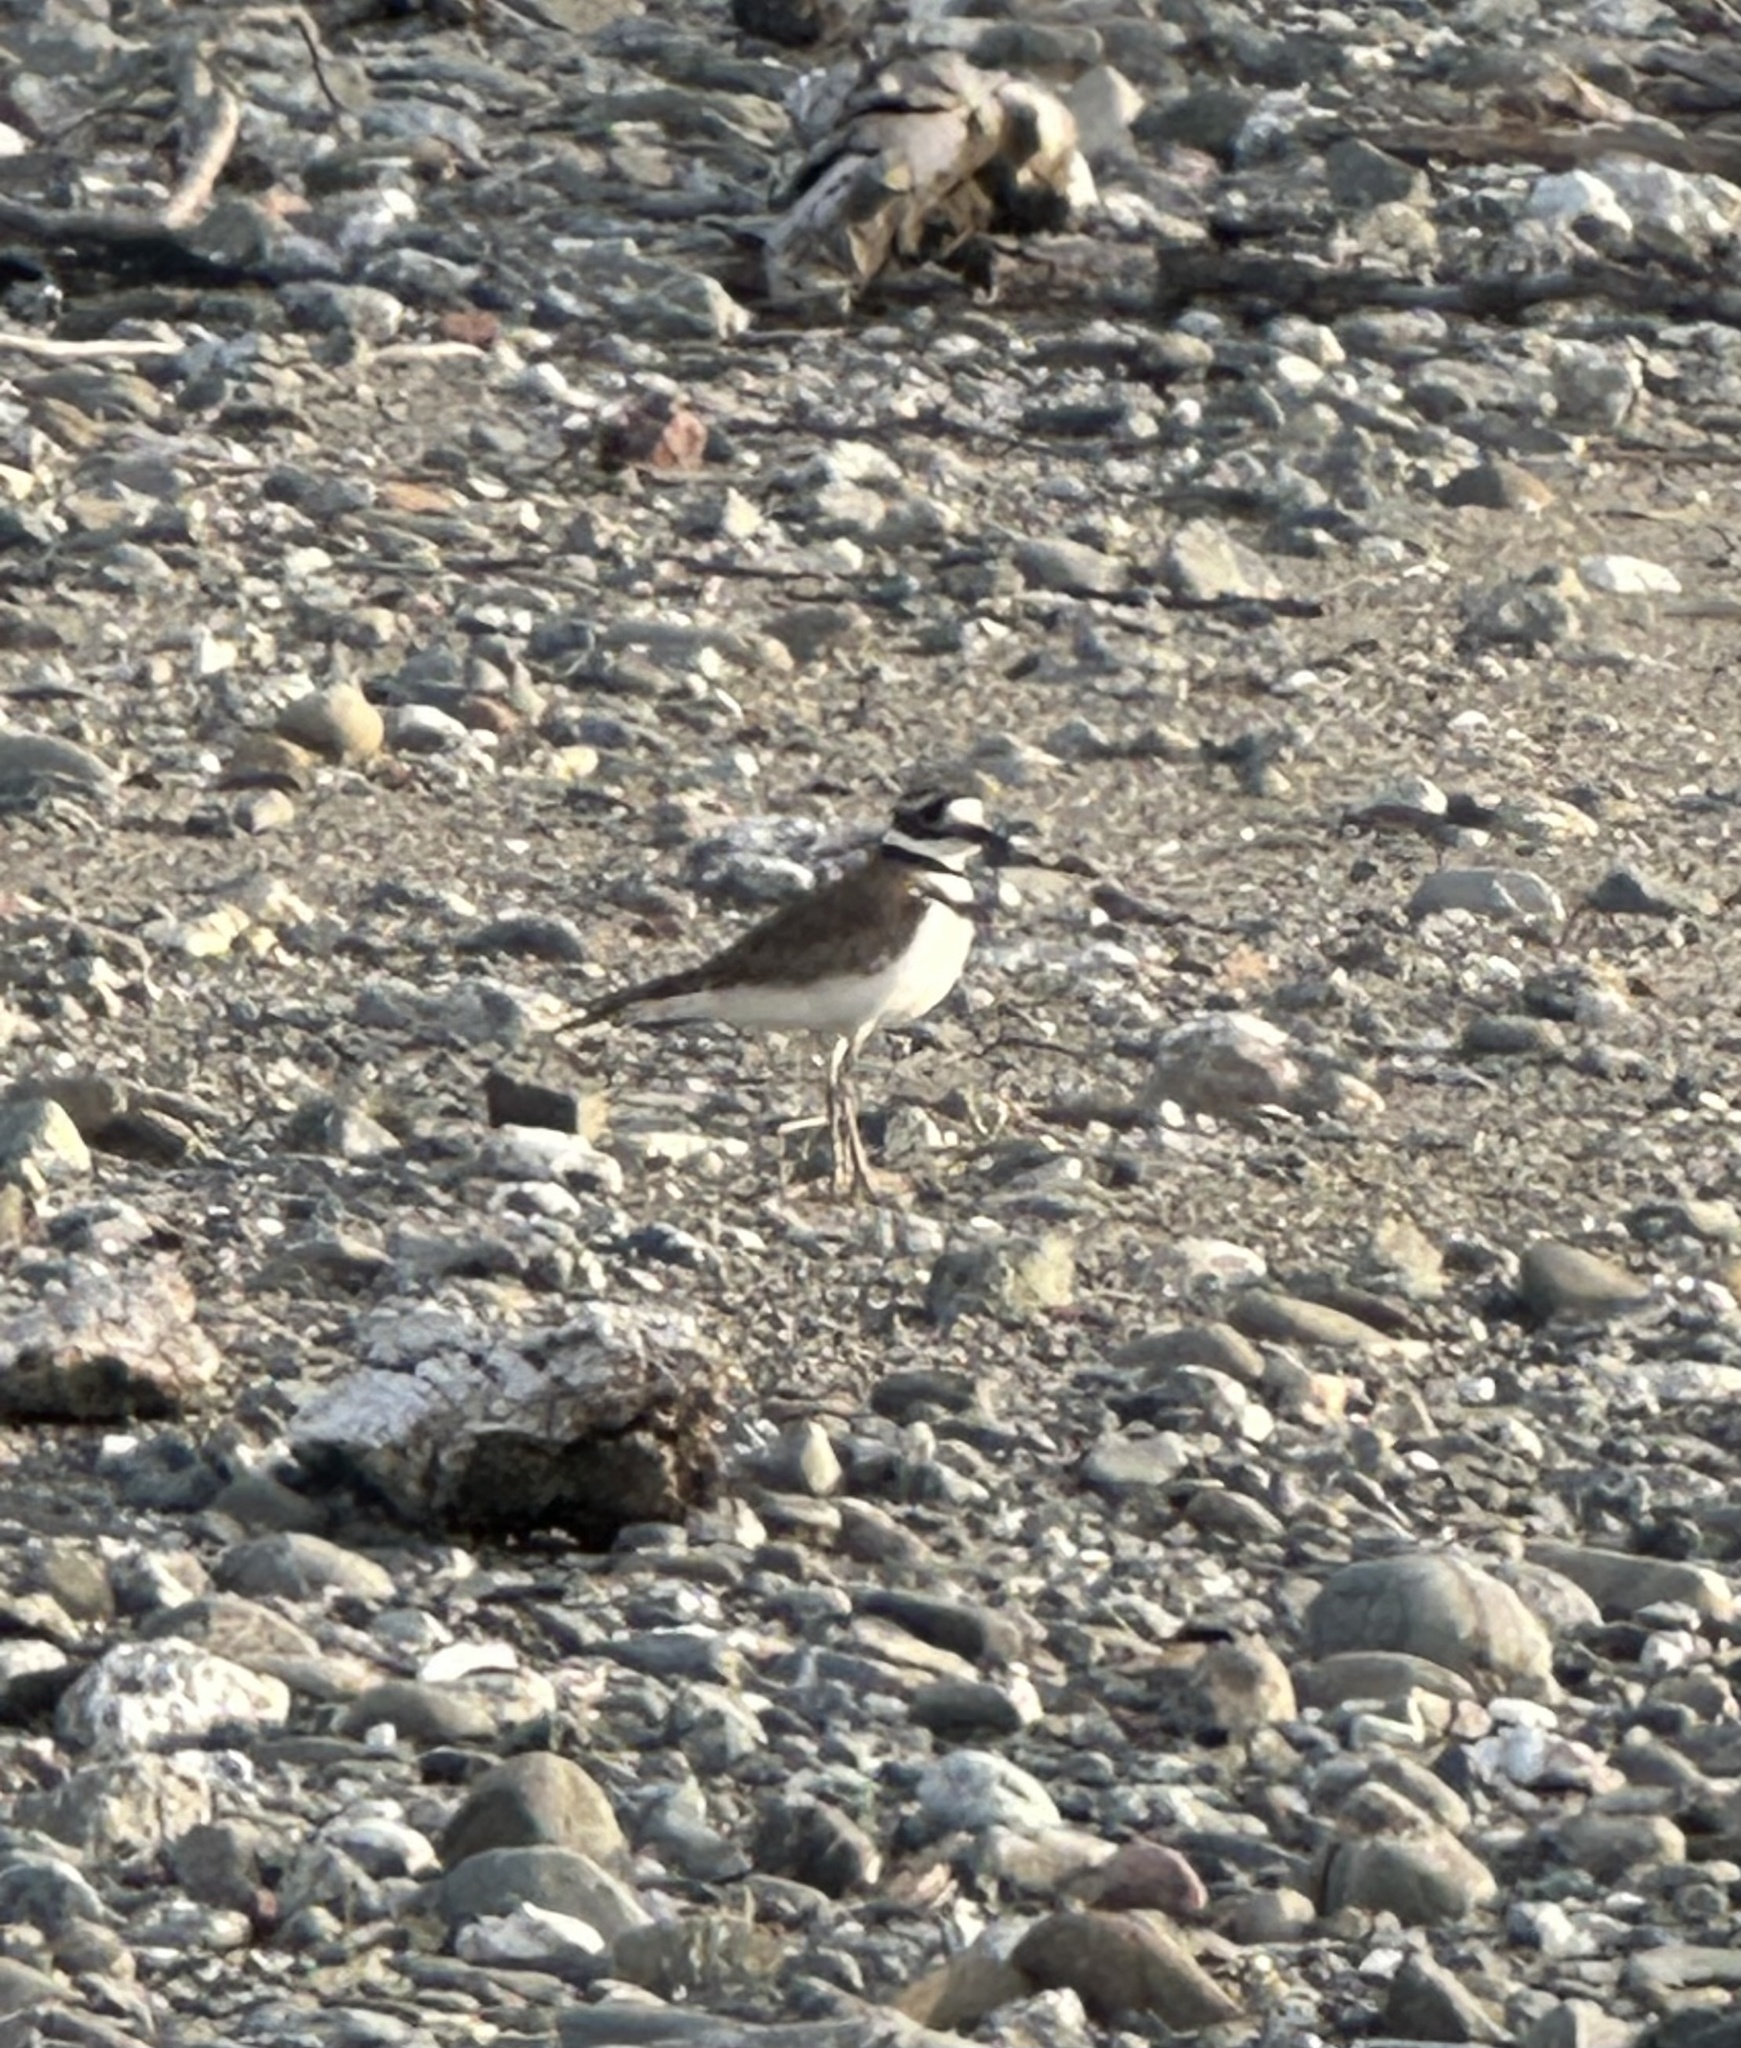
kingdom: Animalia
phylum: Chordata
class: Aves
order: Charadriiformes
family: Charadriidae
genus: Charadrius
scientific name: Charadrius vociferus
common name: Killdeer
